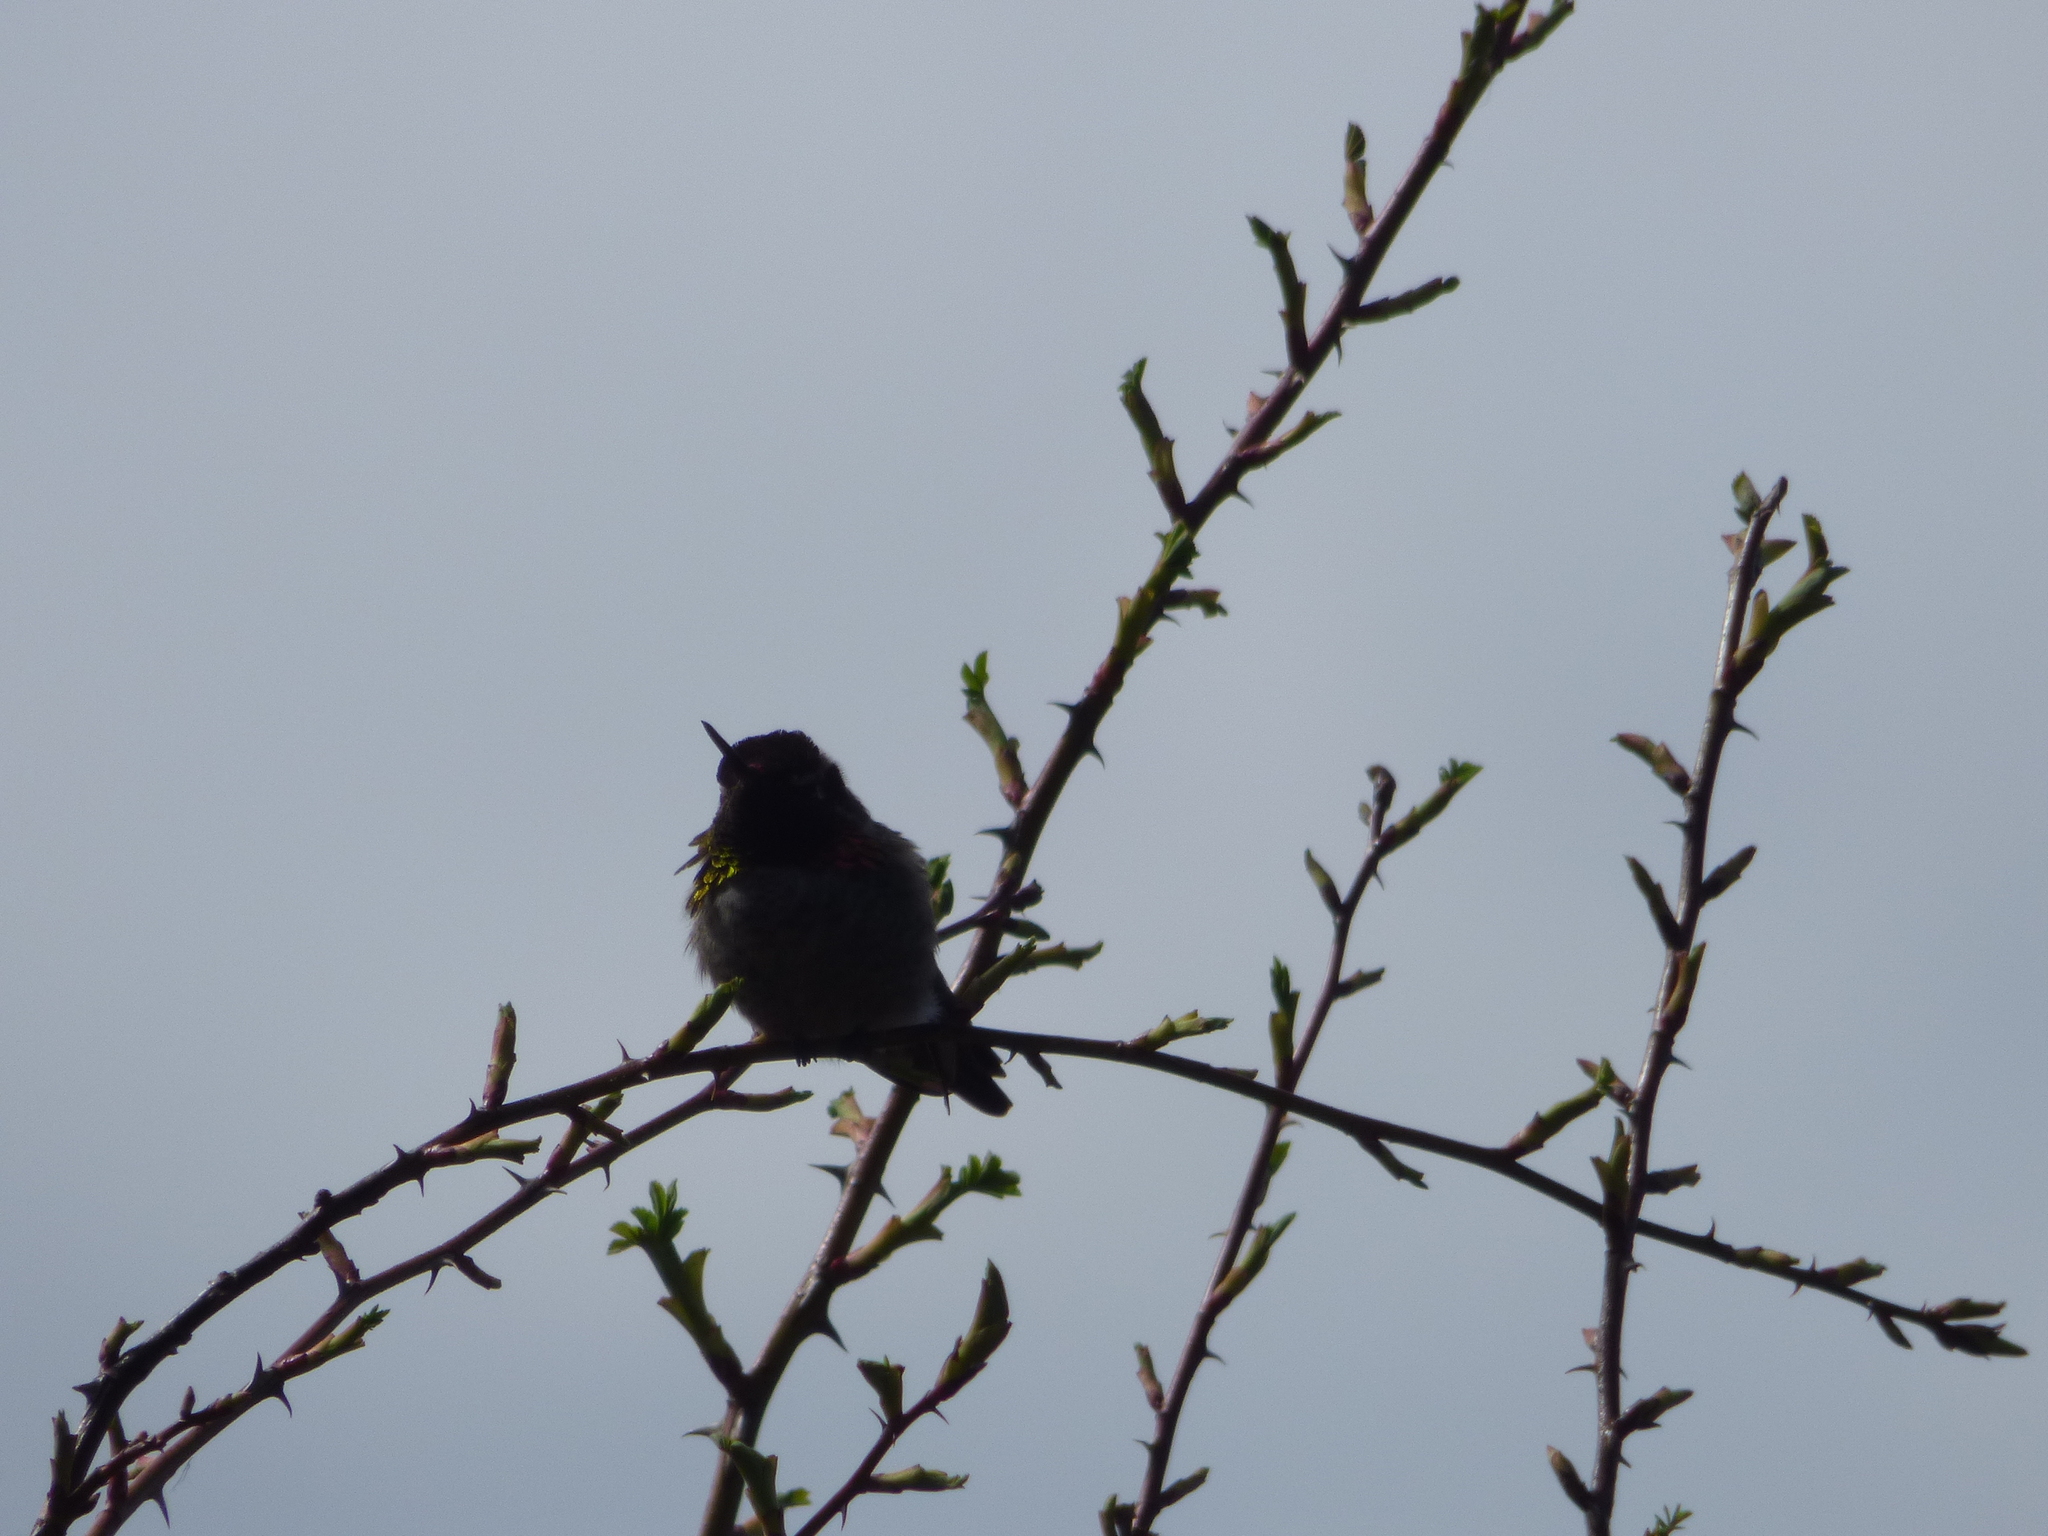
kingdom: Animalia
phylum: Chordata
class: Aves
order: Apodiformes
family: Trochilidae
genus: Calypte
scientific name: Calypte anna
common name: Anna's hummingbird
